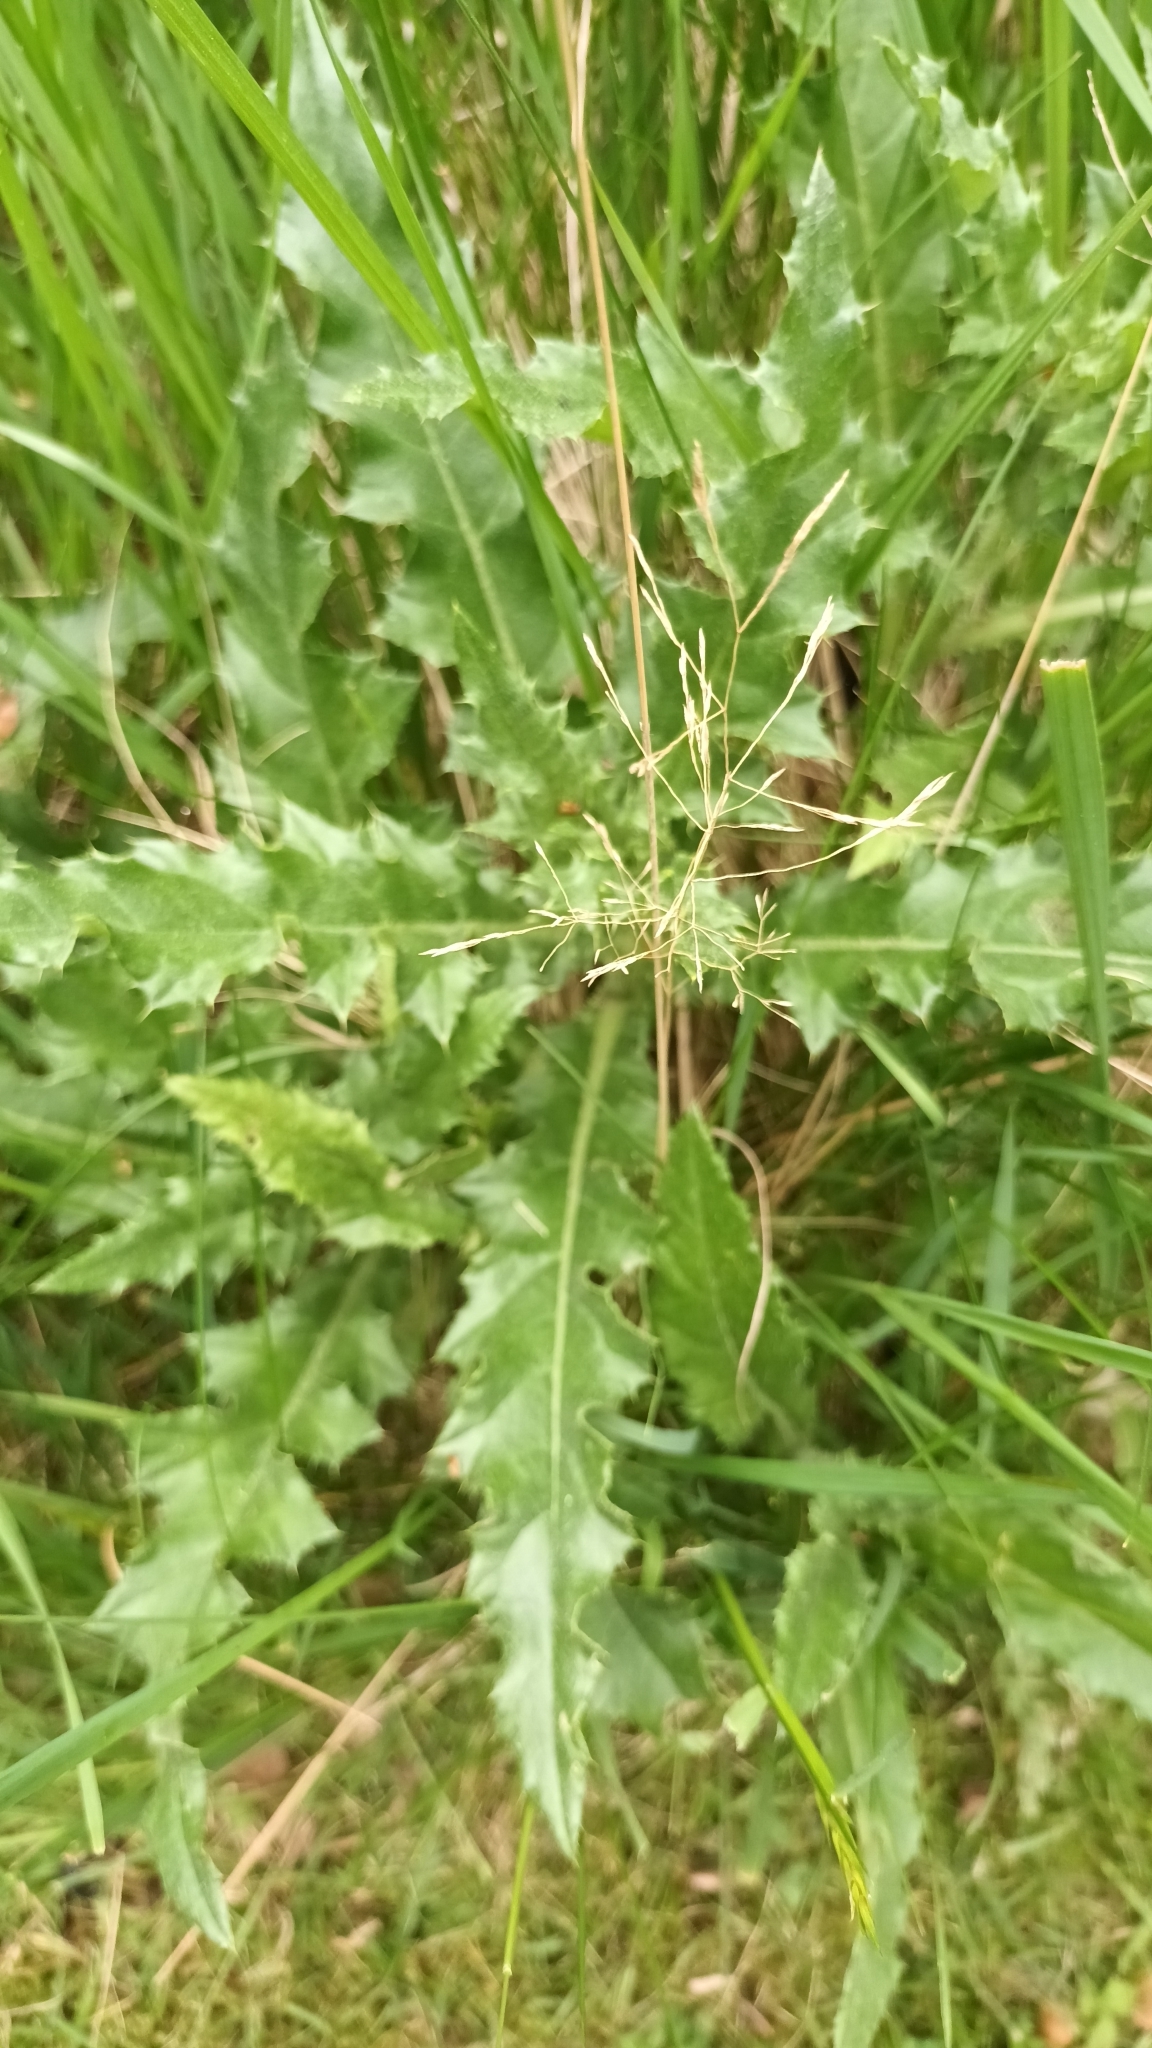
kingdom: Plantae
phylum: Tracheophyta
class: Magnoliopsida
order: Asterales
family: Asteraceae
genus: Cirsium
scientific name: Cirsium arvense
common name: Creeping thistle
